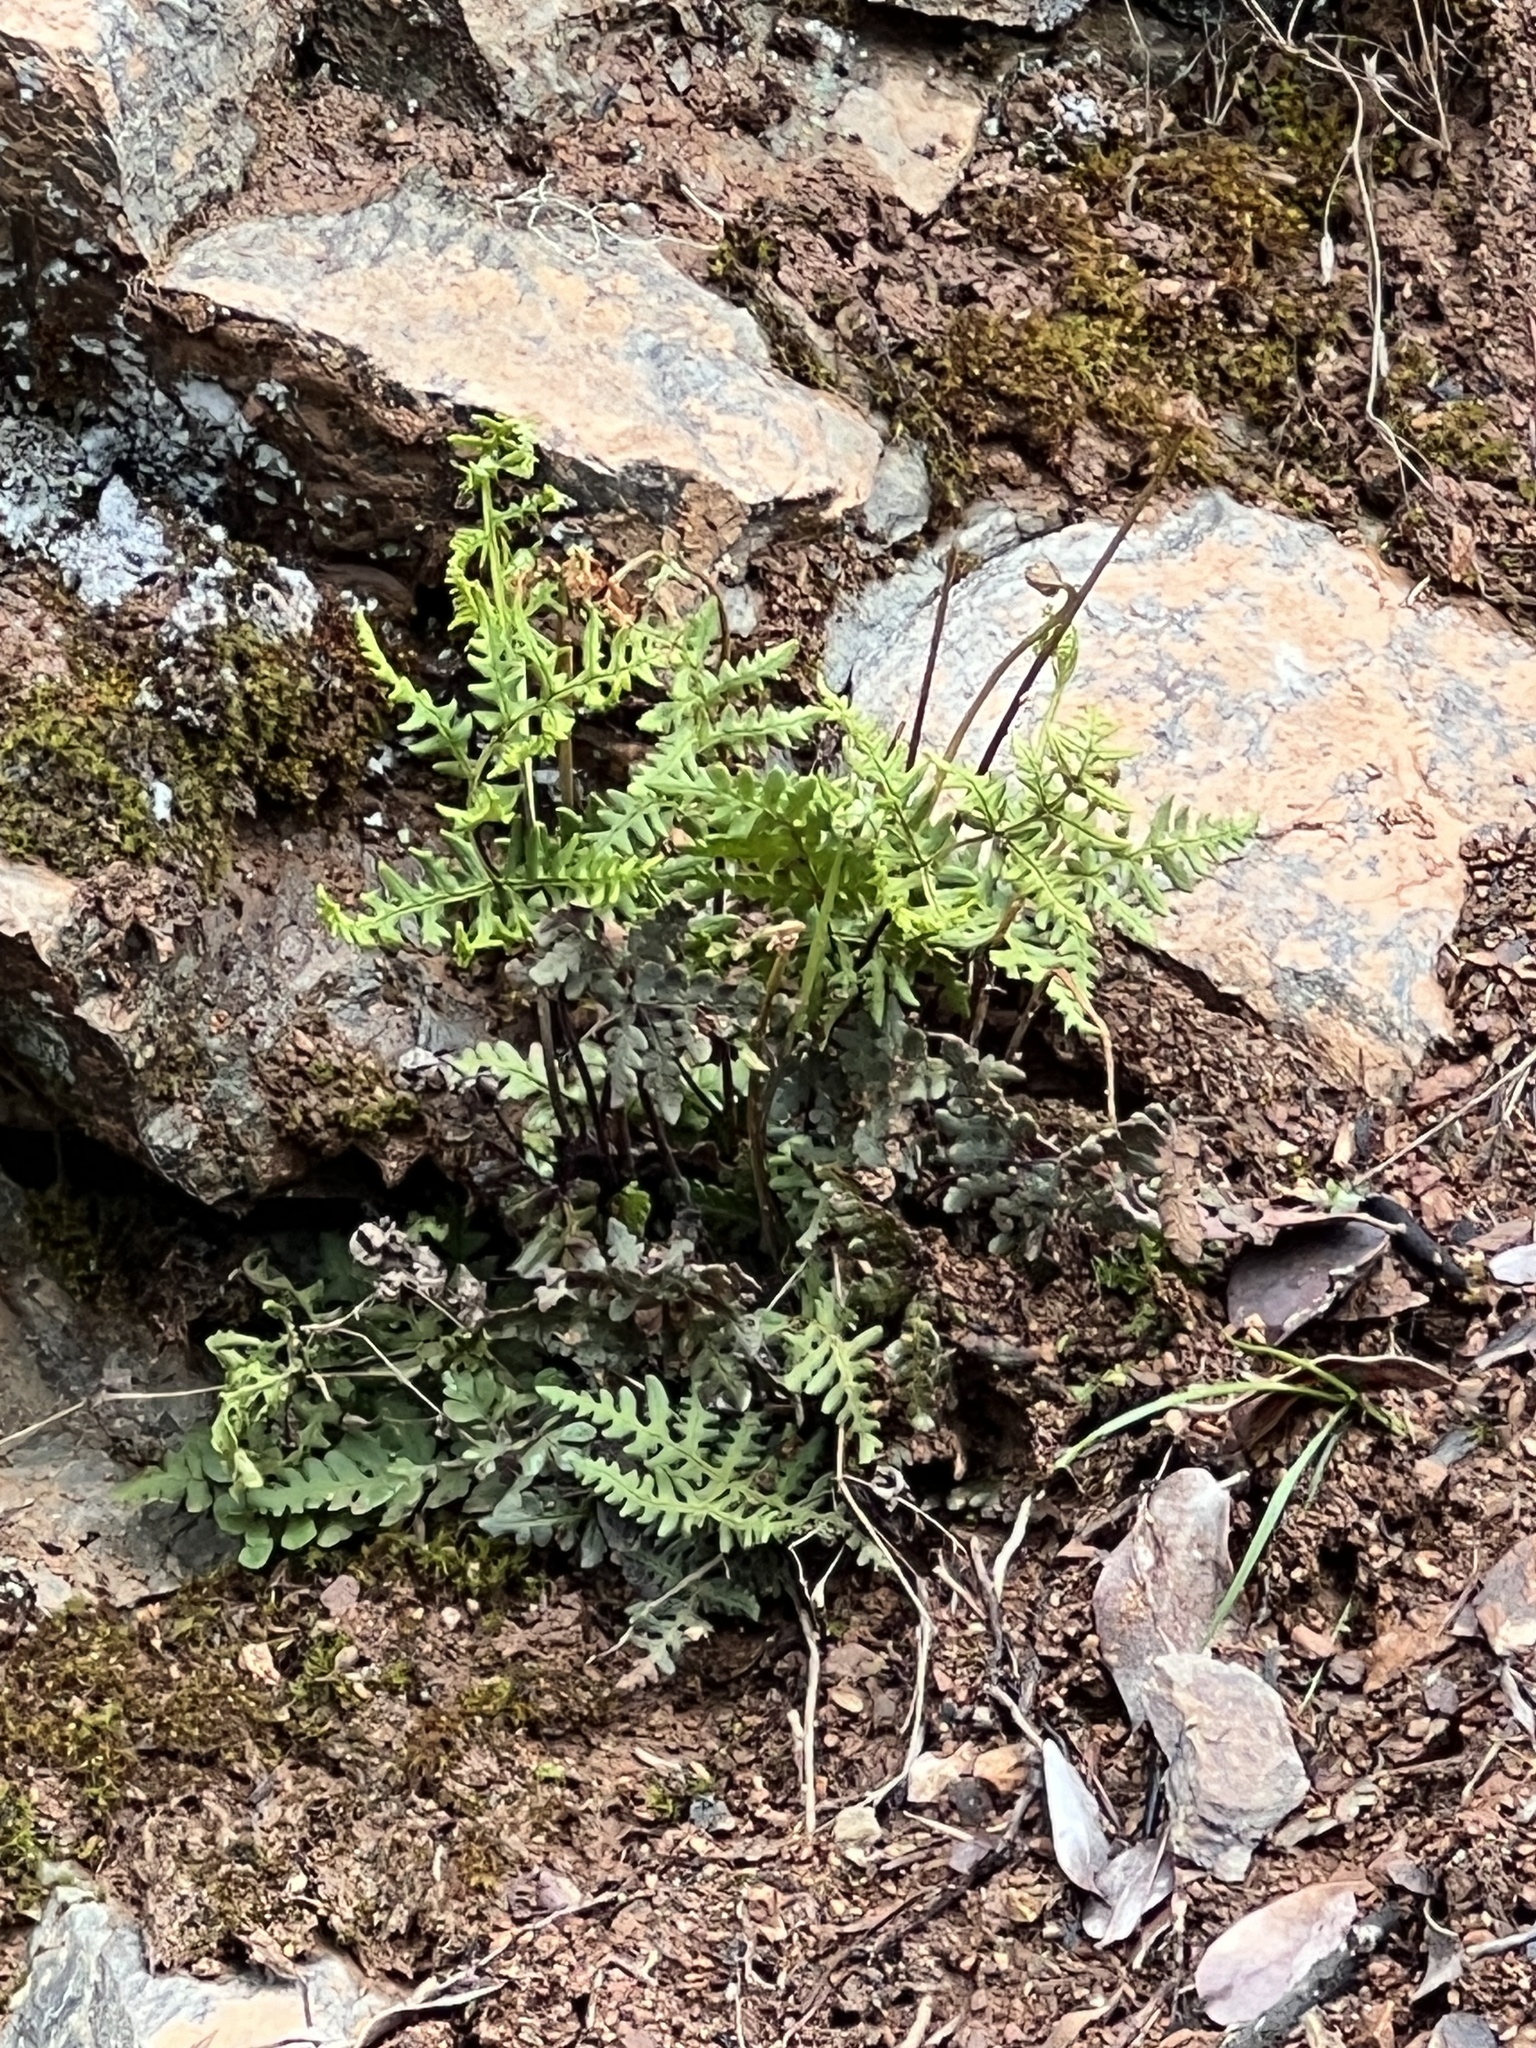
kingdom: Plantae
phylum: Tracheophyta
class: Polypodiopsida
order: Polypodiales
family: Pteridaceae
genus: Pentagramma
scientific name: Pentagramma triangularis
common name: Gold fern
